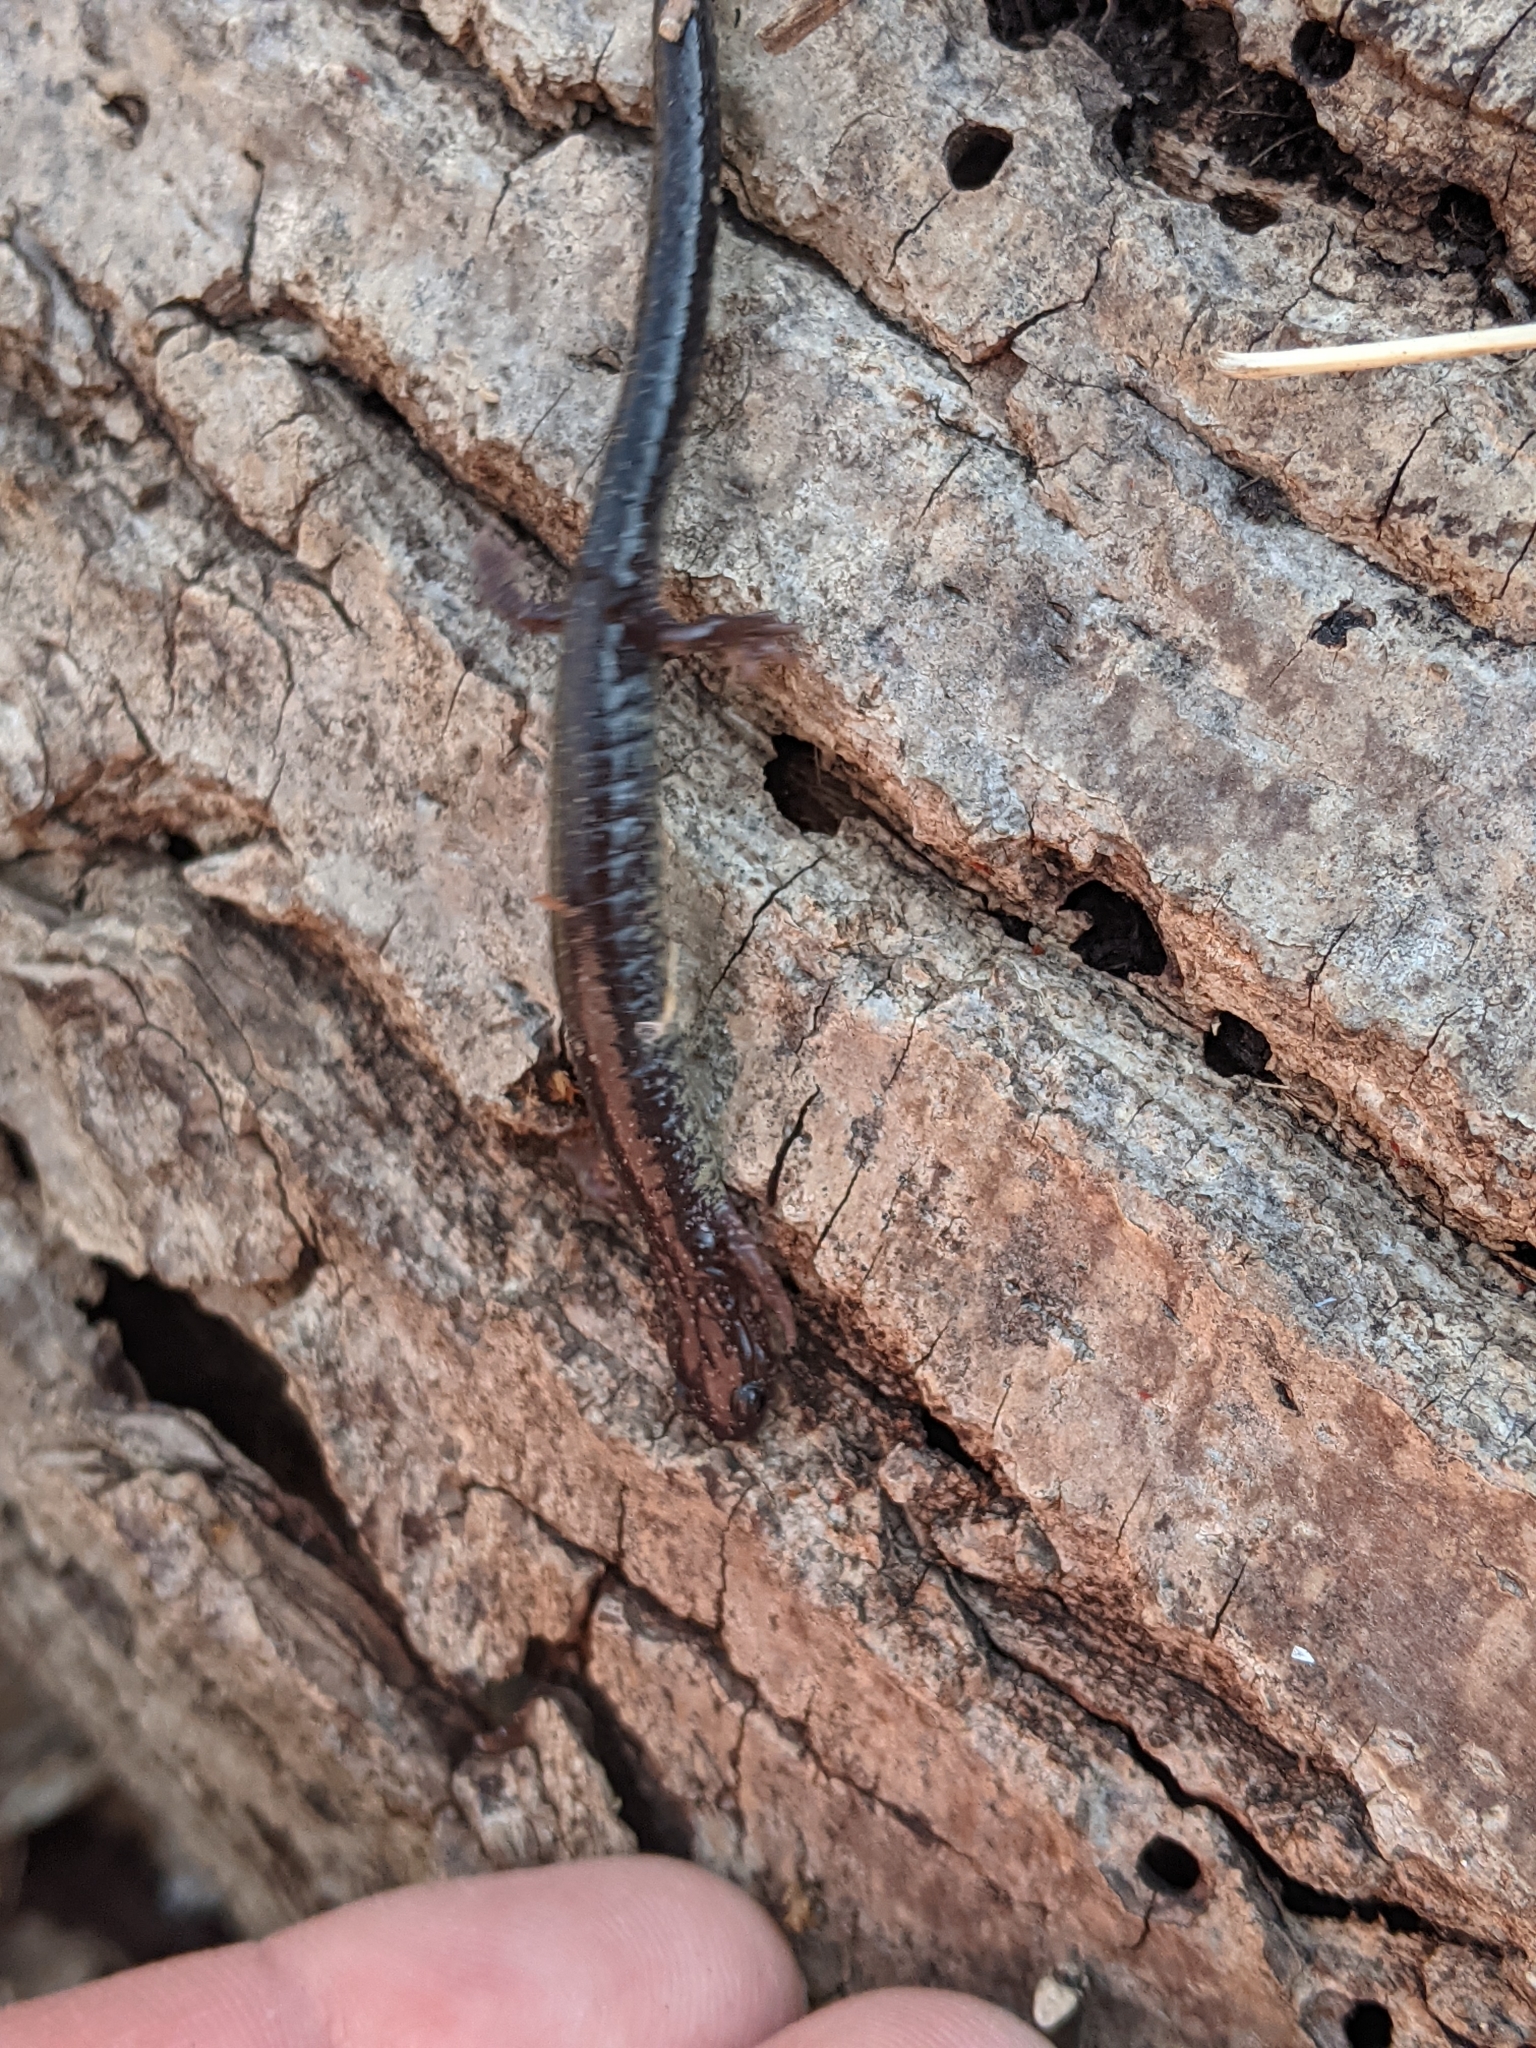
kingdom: Animalia
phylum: Chordata
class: Amphibia
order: Caudata
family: Plethodontidae
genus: Plethodon
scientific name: Plethodon cinereus
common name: Redback salamander
